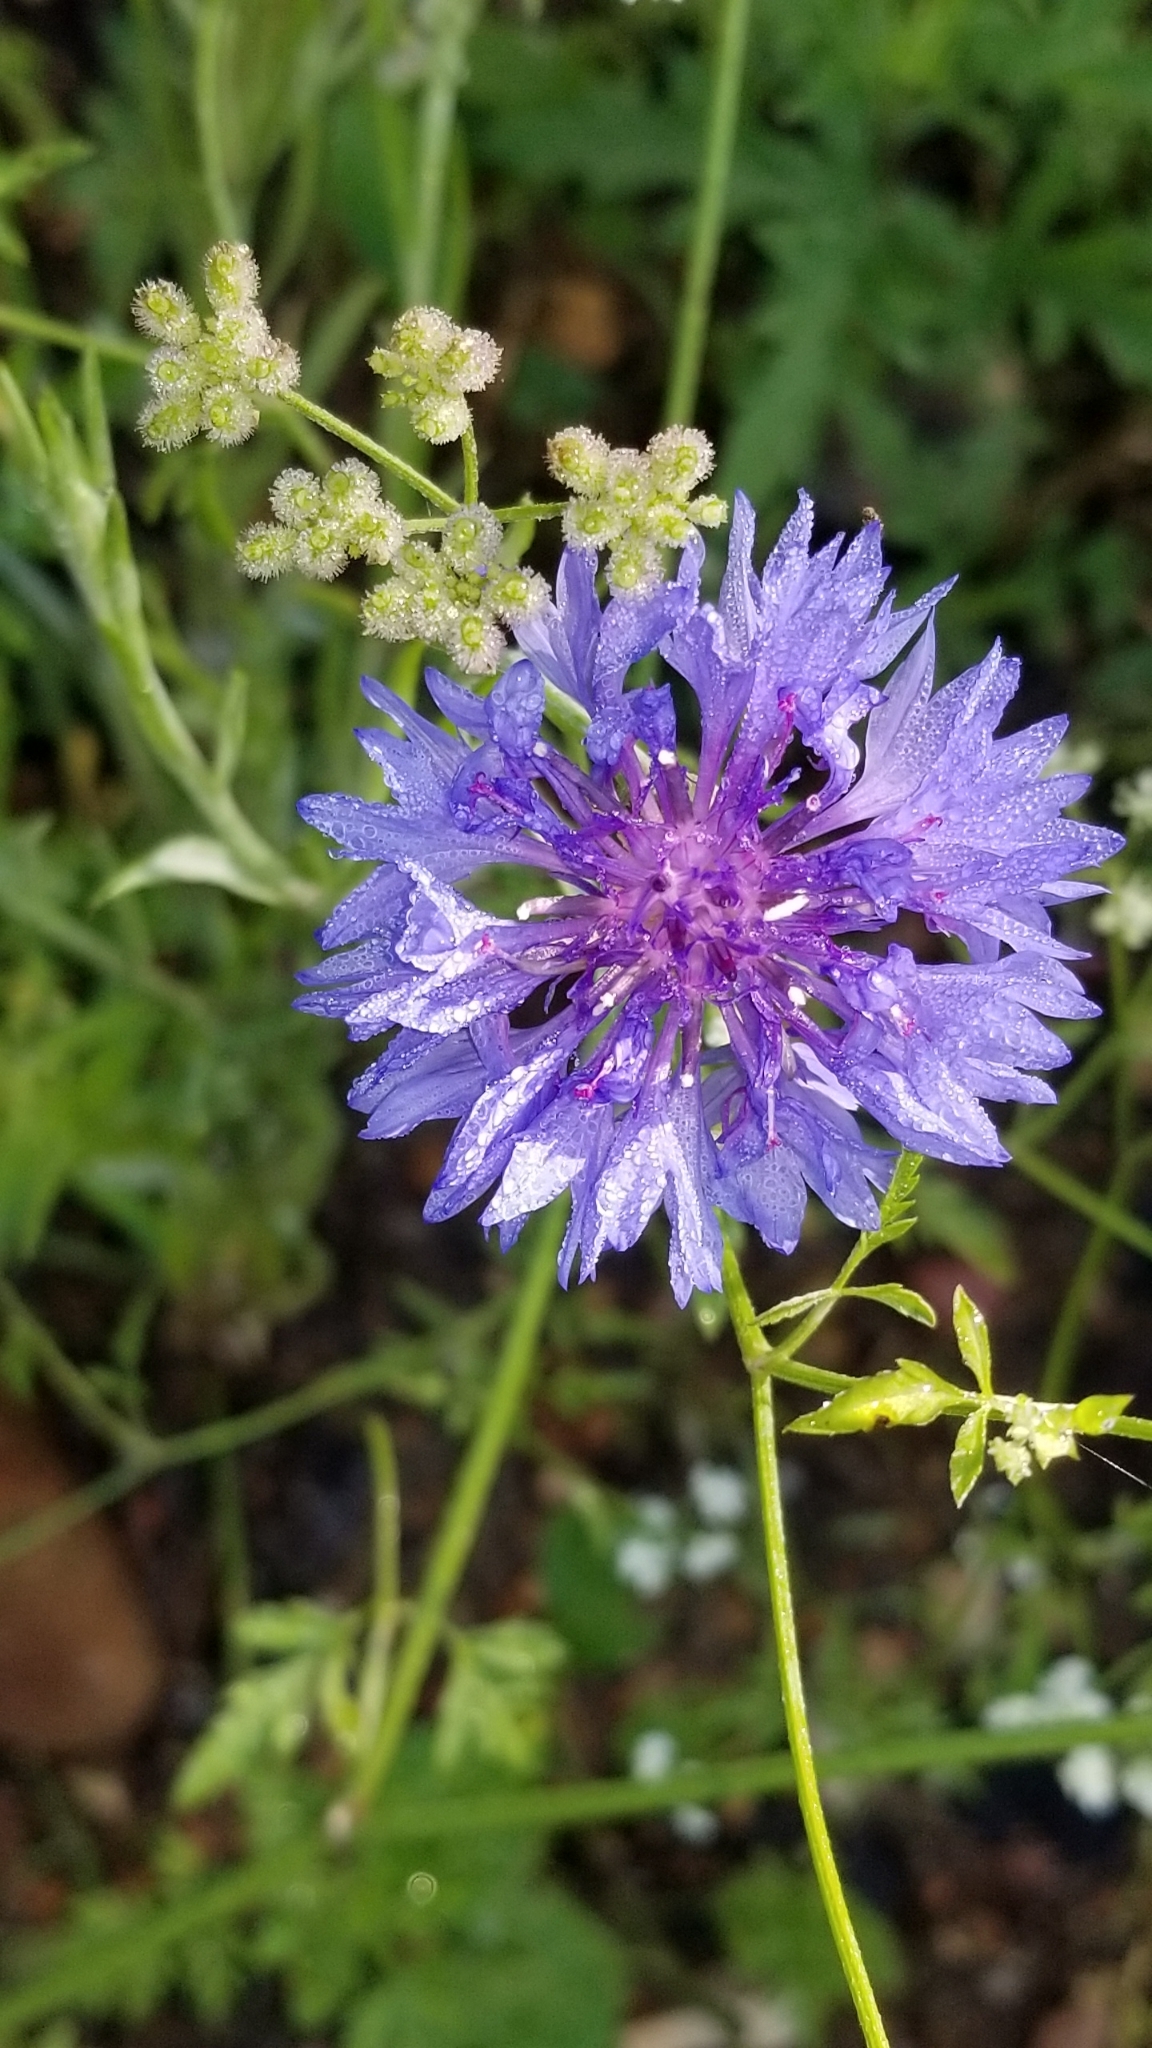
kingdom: Plantae
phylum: Tracheophyta
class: Magnoliopsida
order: Asterales
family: Asteraceae
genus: Centaurea
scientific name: Centaurea cyanus
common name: Cornflower
